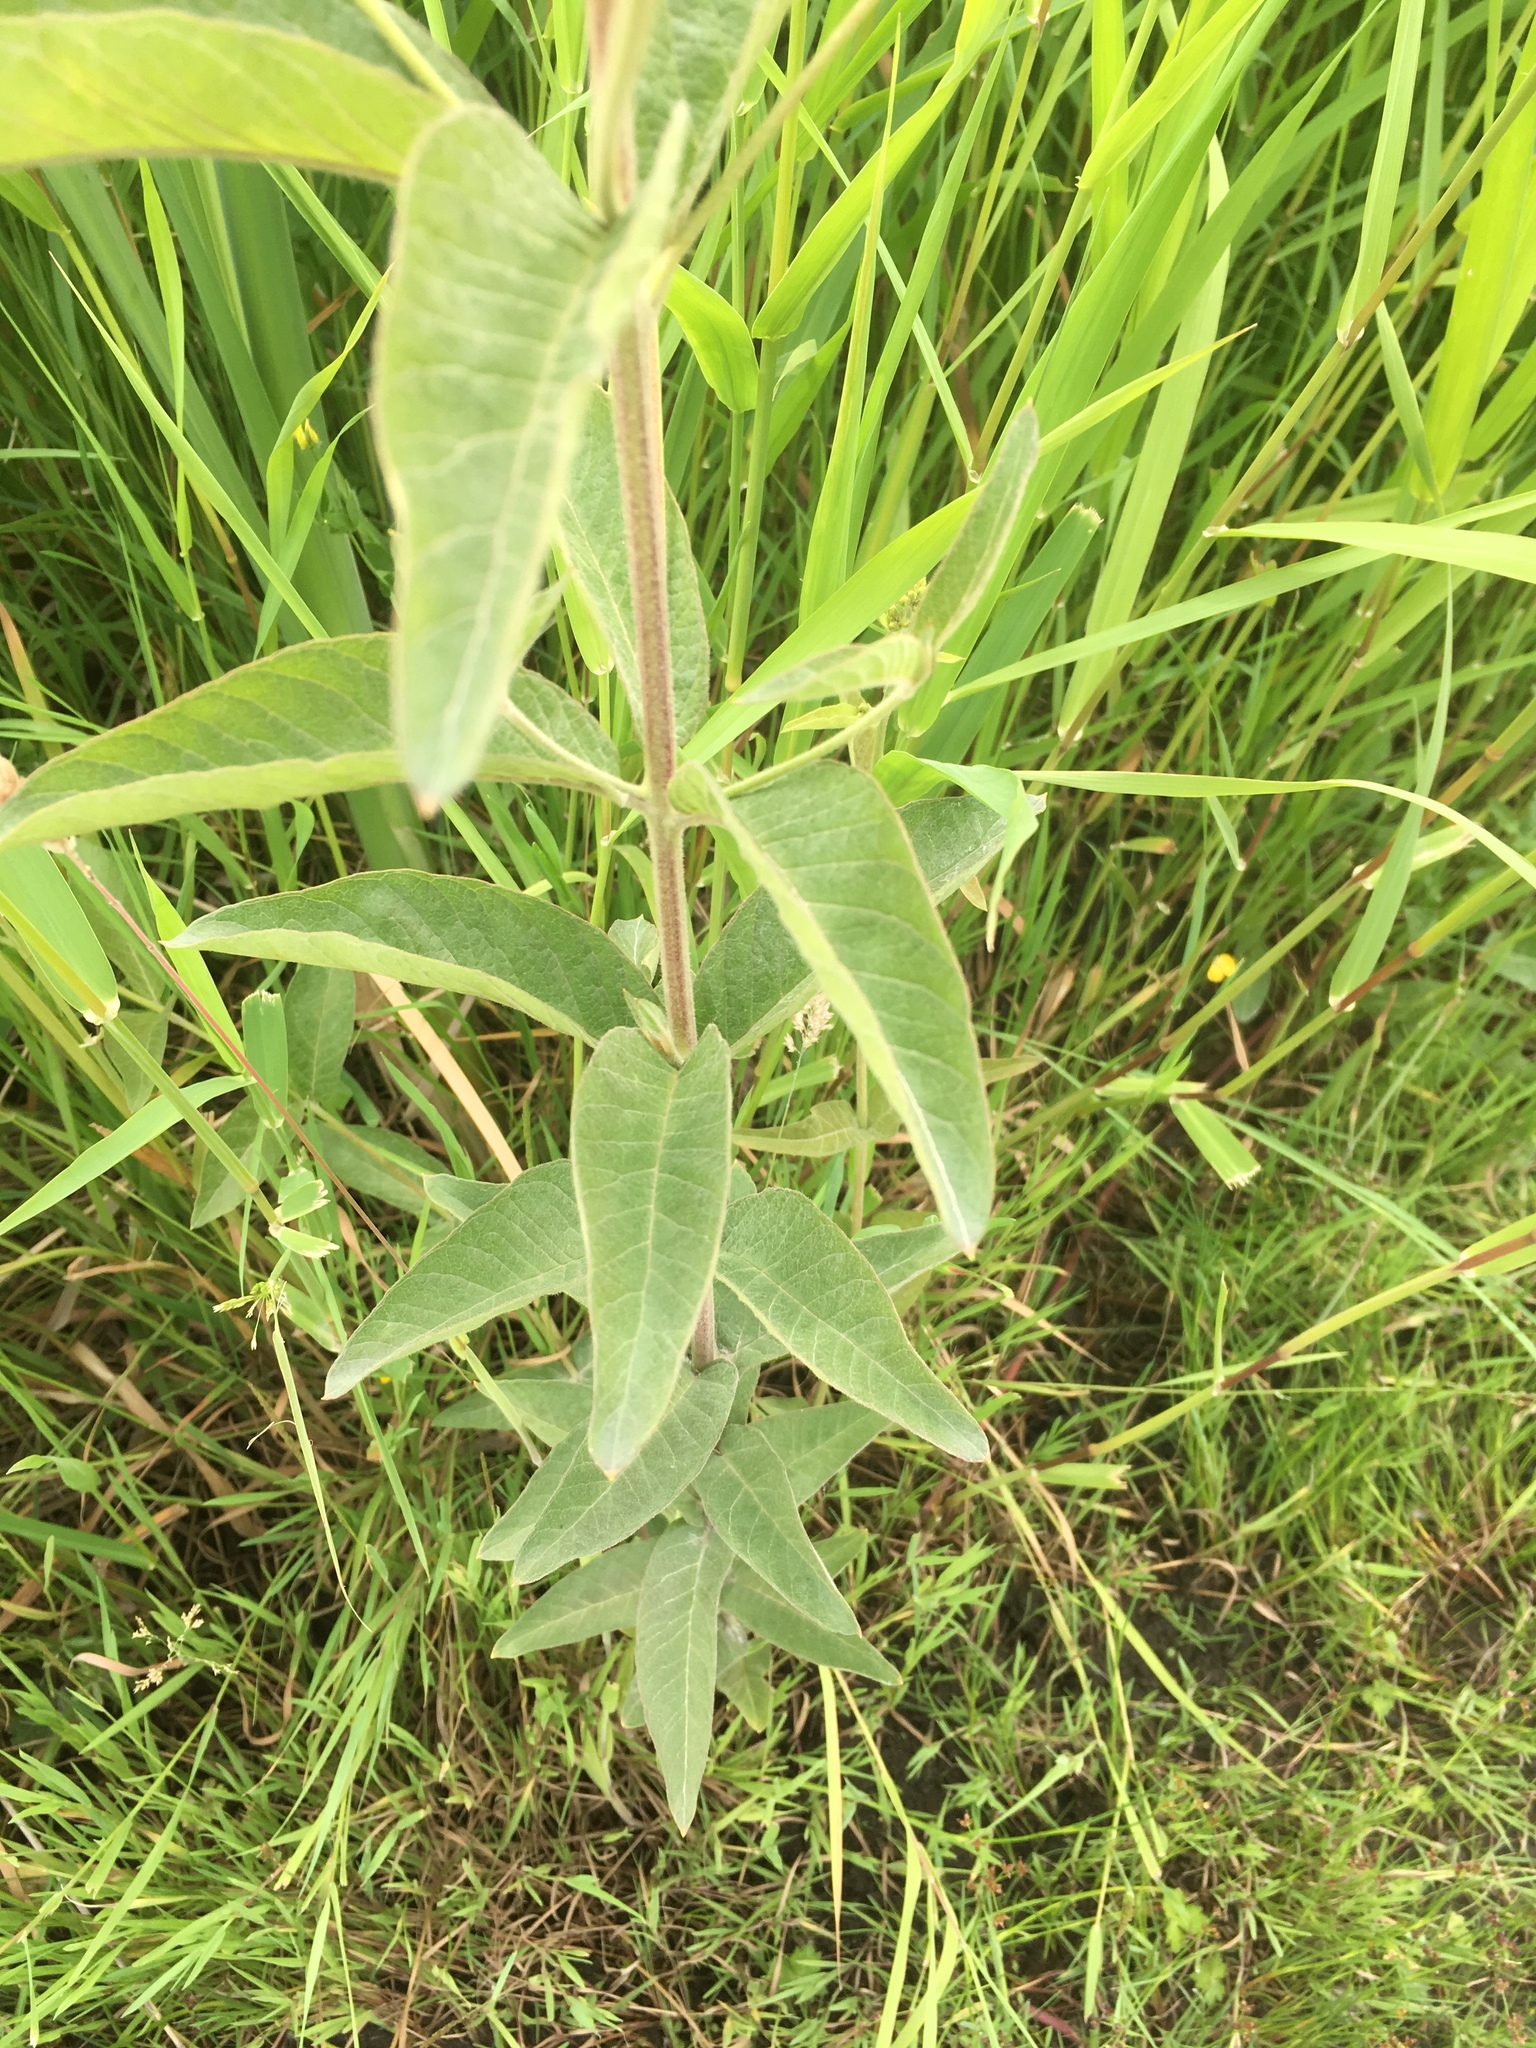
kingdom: Plantae
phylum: Tracheophyta
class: Magnoliopsida
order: Ericales
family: Primulaceae
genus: Lysimachia
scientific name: Lysimachia vulgaris
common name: Yellow loosestrife
